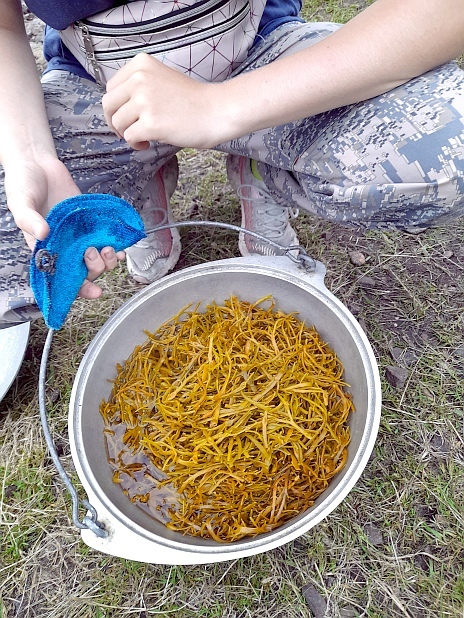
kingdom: Chromista
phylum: Ochrophyta
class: Phaeophyceae
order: Fucales
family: Fucaceae
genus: Ascophyllum
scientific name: Ascophyllum nodosum
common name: Knotted wrack
